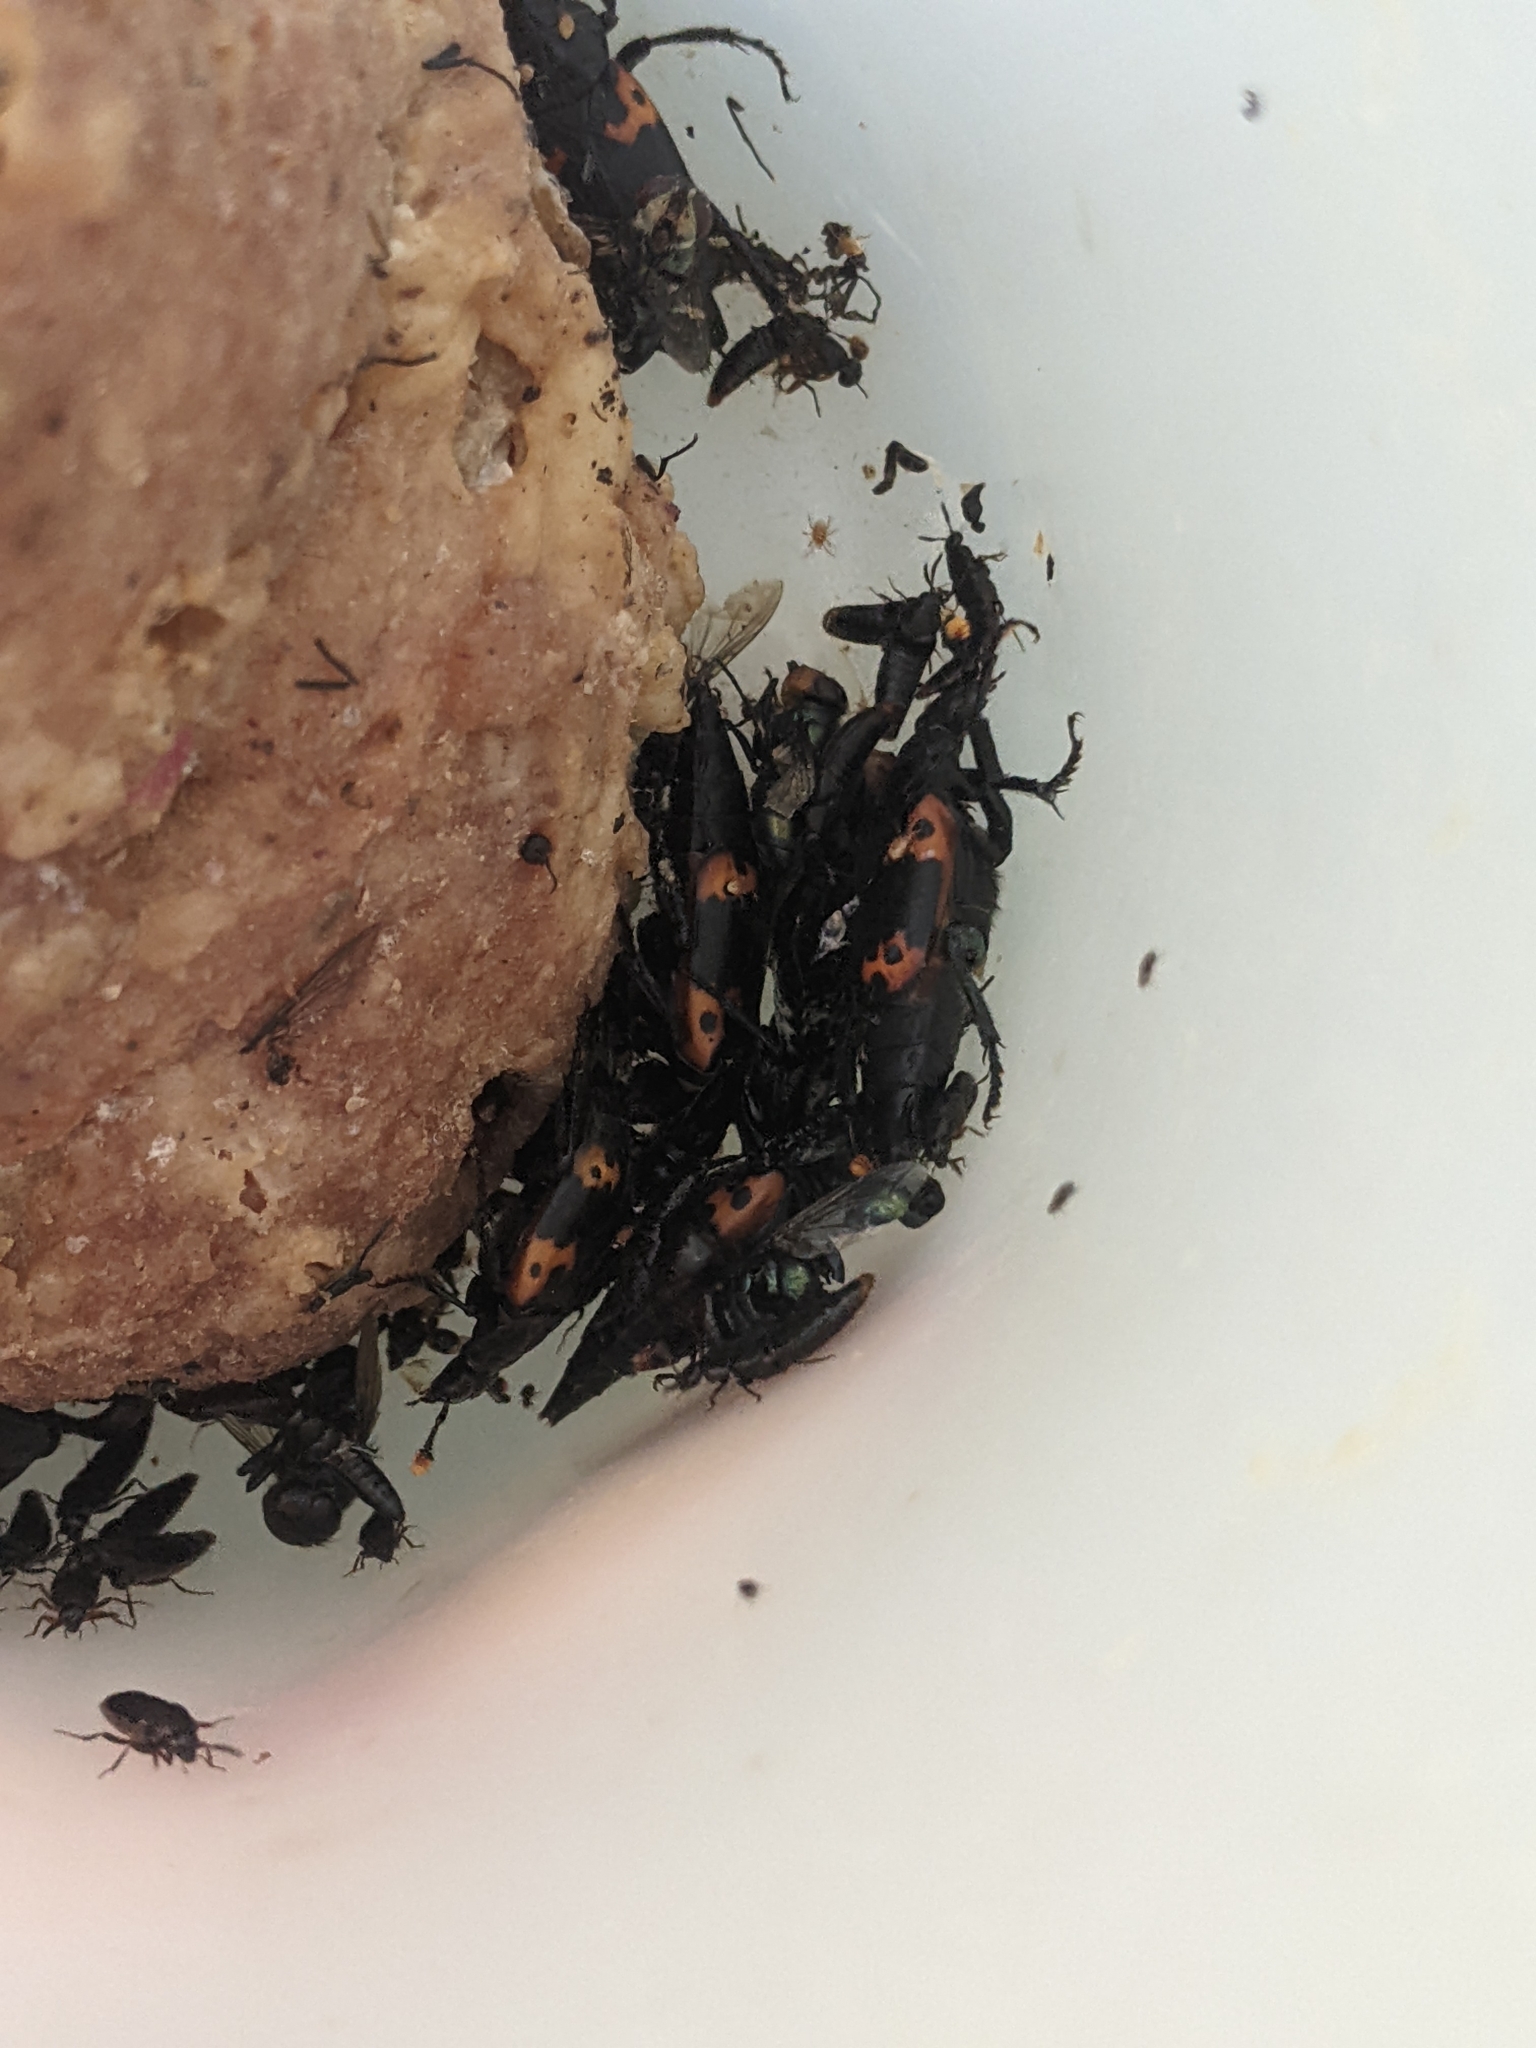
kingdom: Animalia
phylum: Arthropoda
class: Insecta
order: Coleoptera
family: Staphylinidae
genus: Nicrophorus
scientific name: Nicrophorus nepalensis
